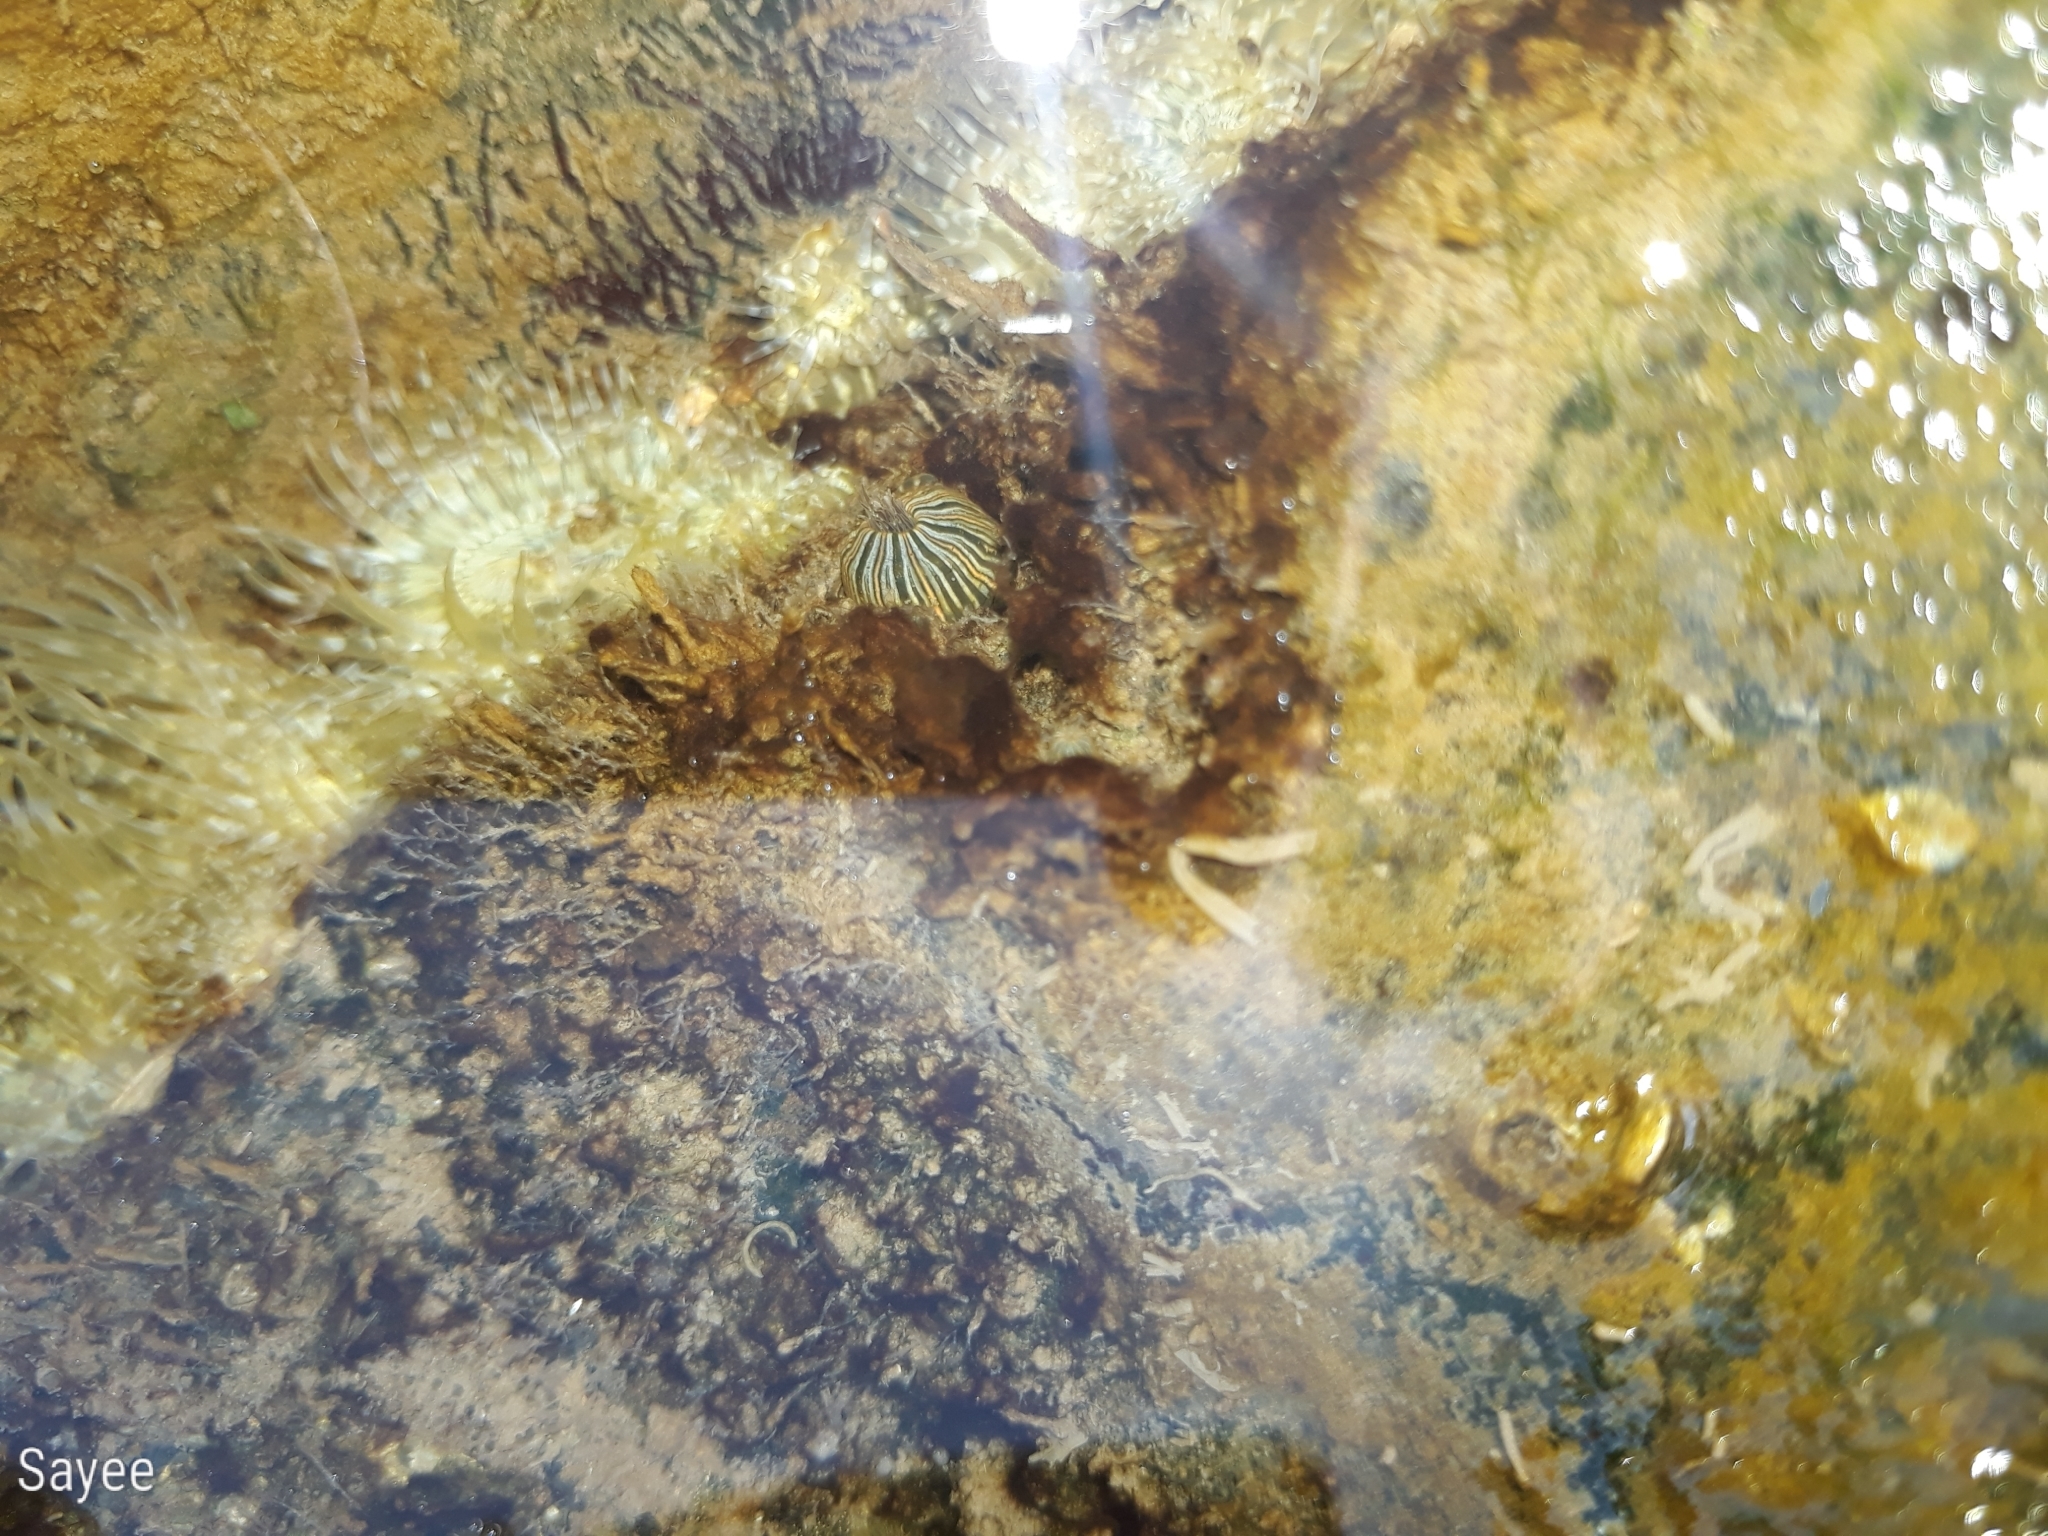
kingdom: Animalia
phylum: Cnidaria
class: Anthozoa
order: Actiniaria
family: Diadumenidae
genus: Diadumene
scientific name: Diadumene lineata
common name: Orange-striped anemone
